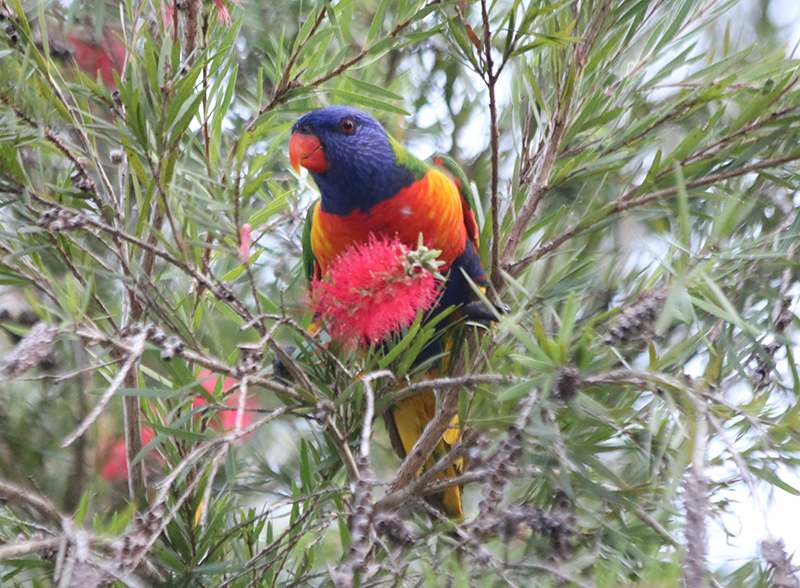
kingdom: Animalia
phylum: Chordata
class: Aves
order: Psittaciformes
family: Psittacidae
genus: Trichoglossus
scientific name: Trichoglossus haematodus
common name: Coconut lorikeet
